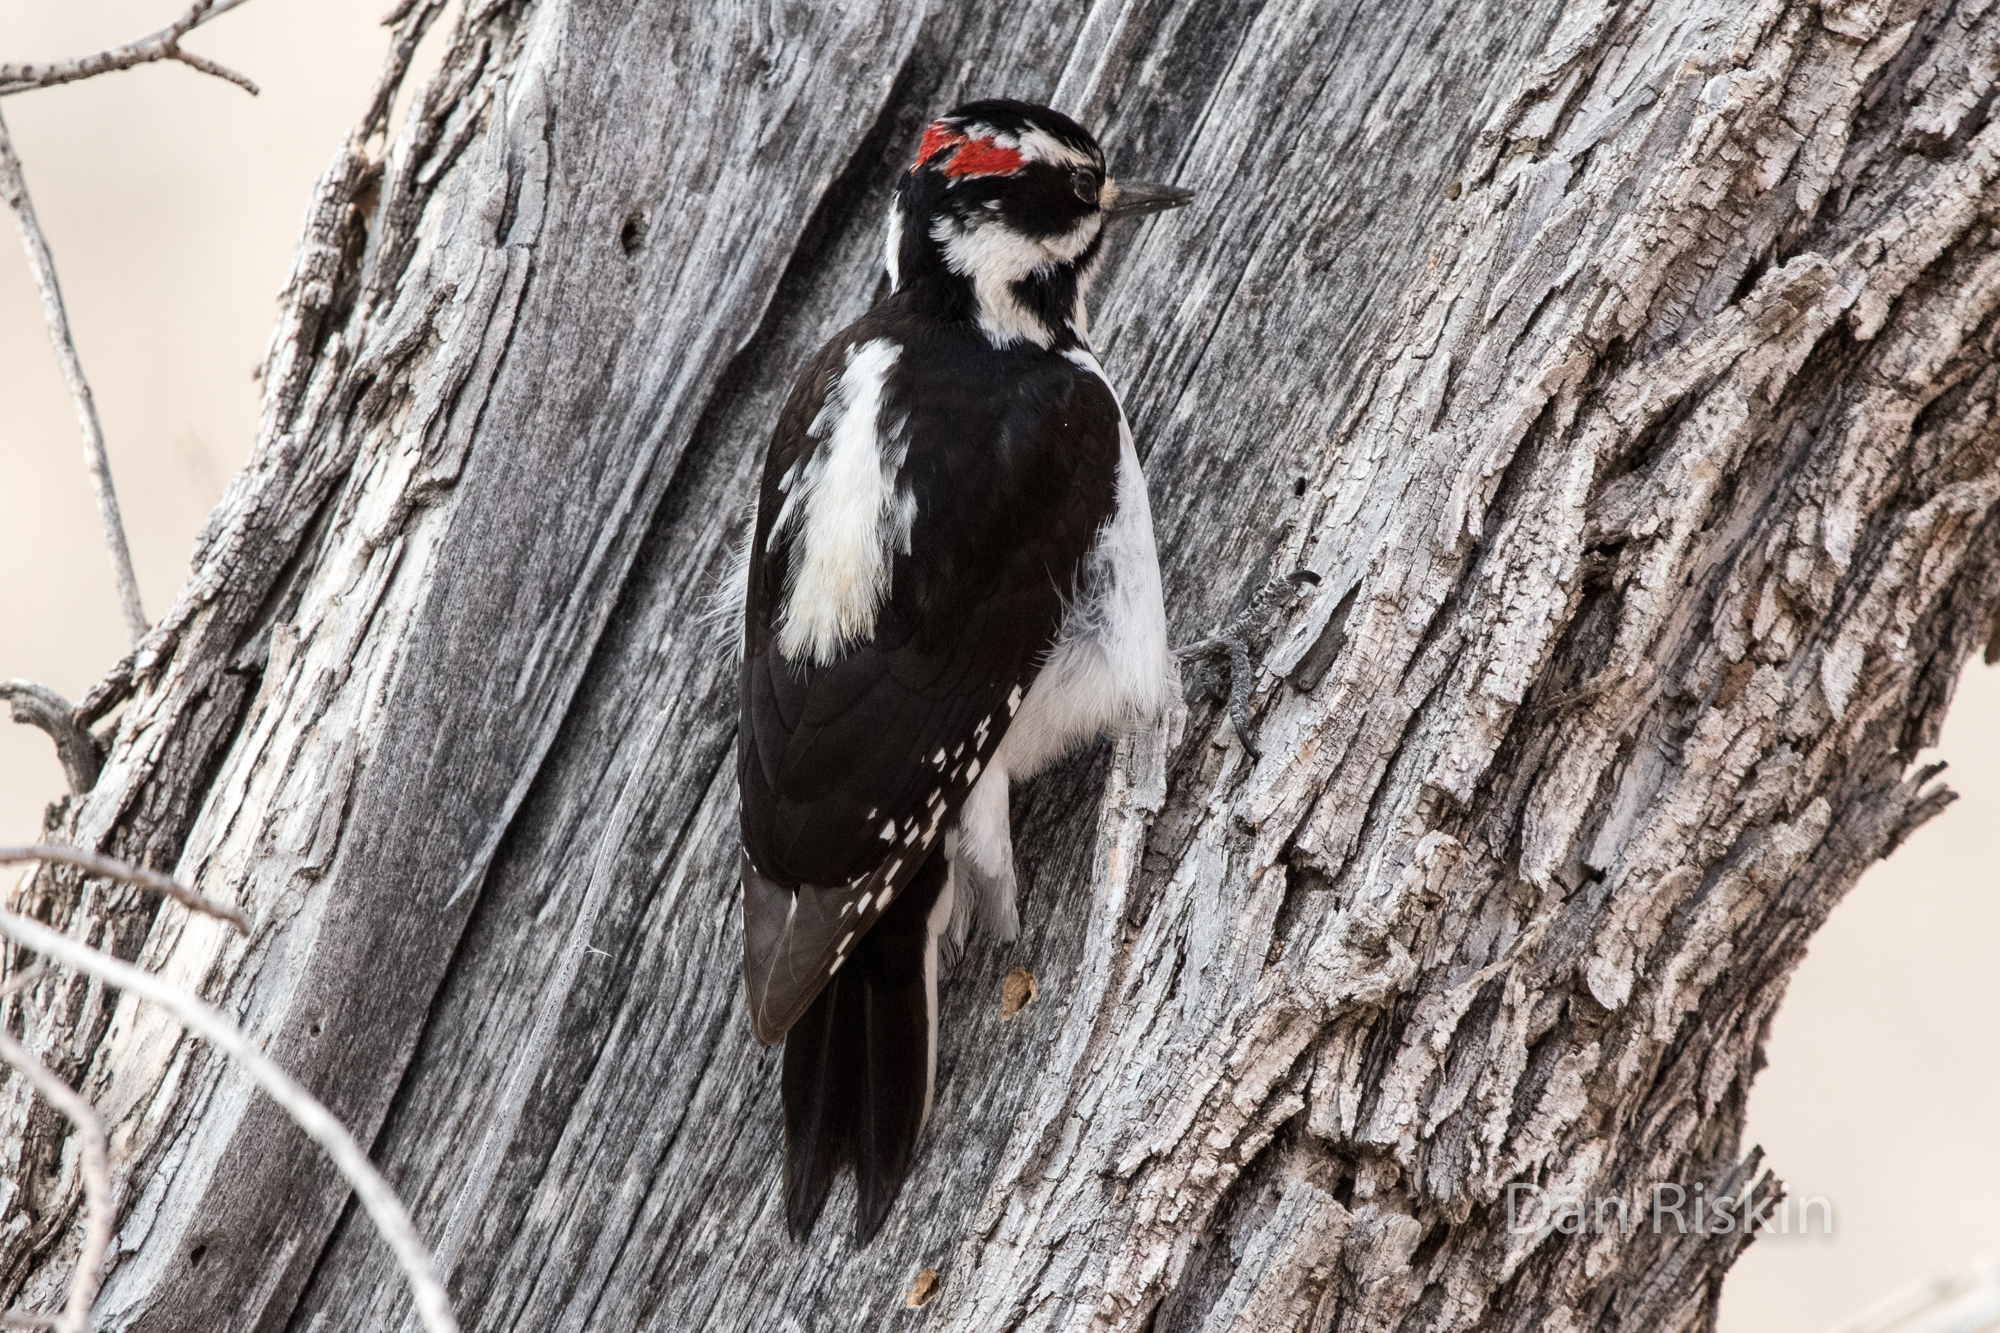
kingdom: Animalia
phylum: Chordata
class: Aves
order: Piciformes
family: Picidae
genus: Leuconotopicus
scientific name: Leuconotopicus villosus
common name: Hairy woodpecker
